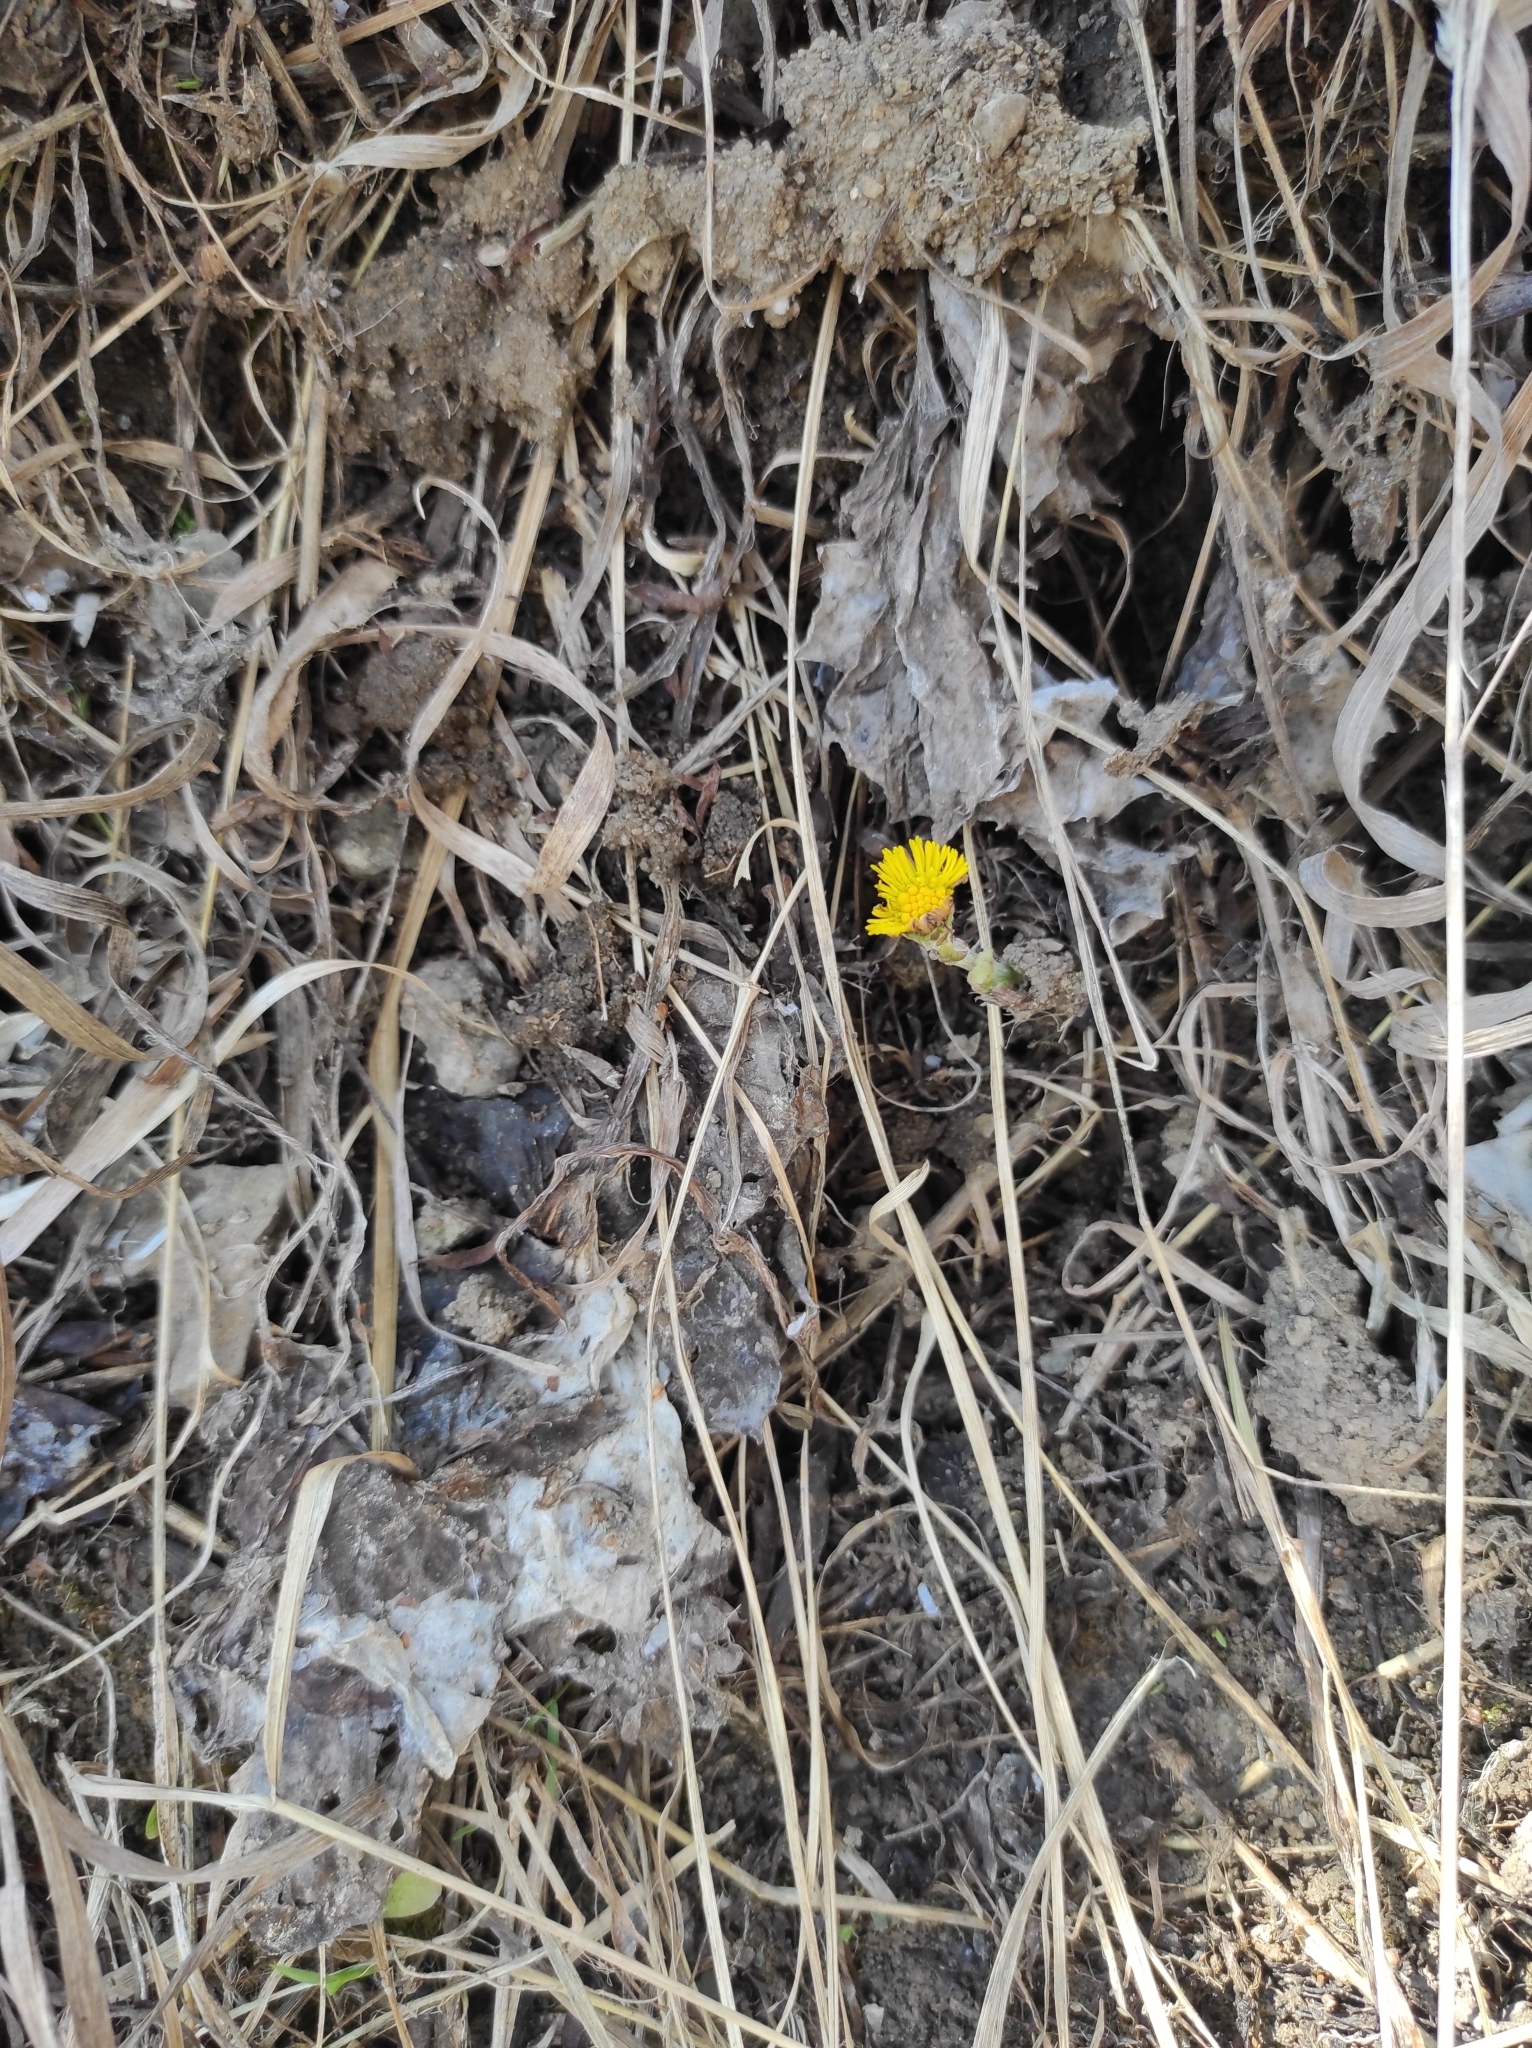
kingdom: Plantae
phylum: Tracheophyta
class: Magnoliopsida
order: Asterales
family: Asteraceae
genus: Tussilago
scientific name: Tussilago farfara
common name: Coltsfoot
